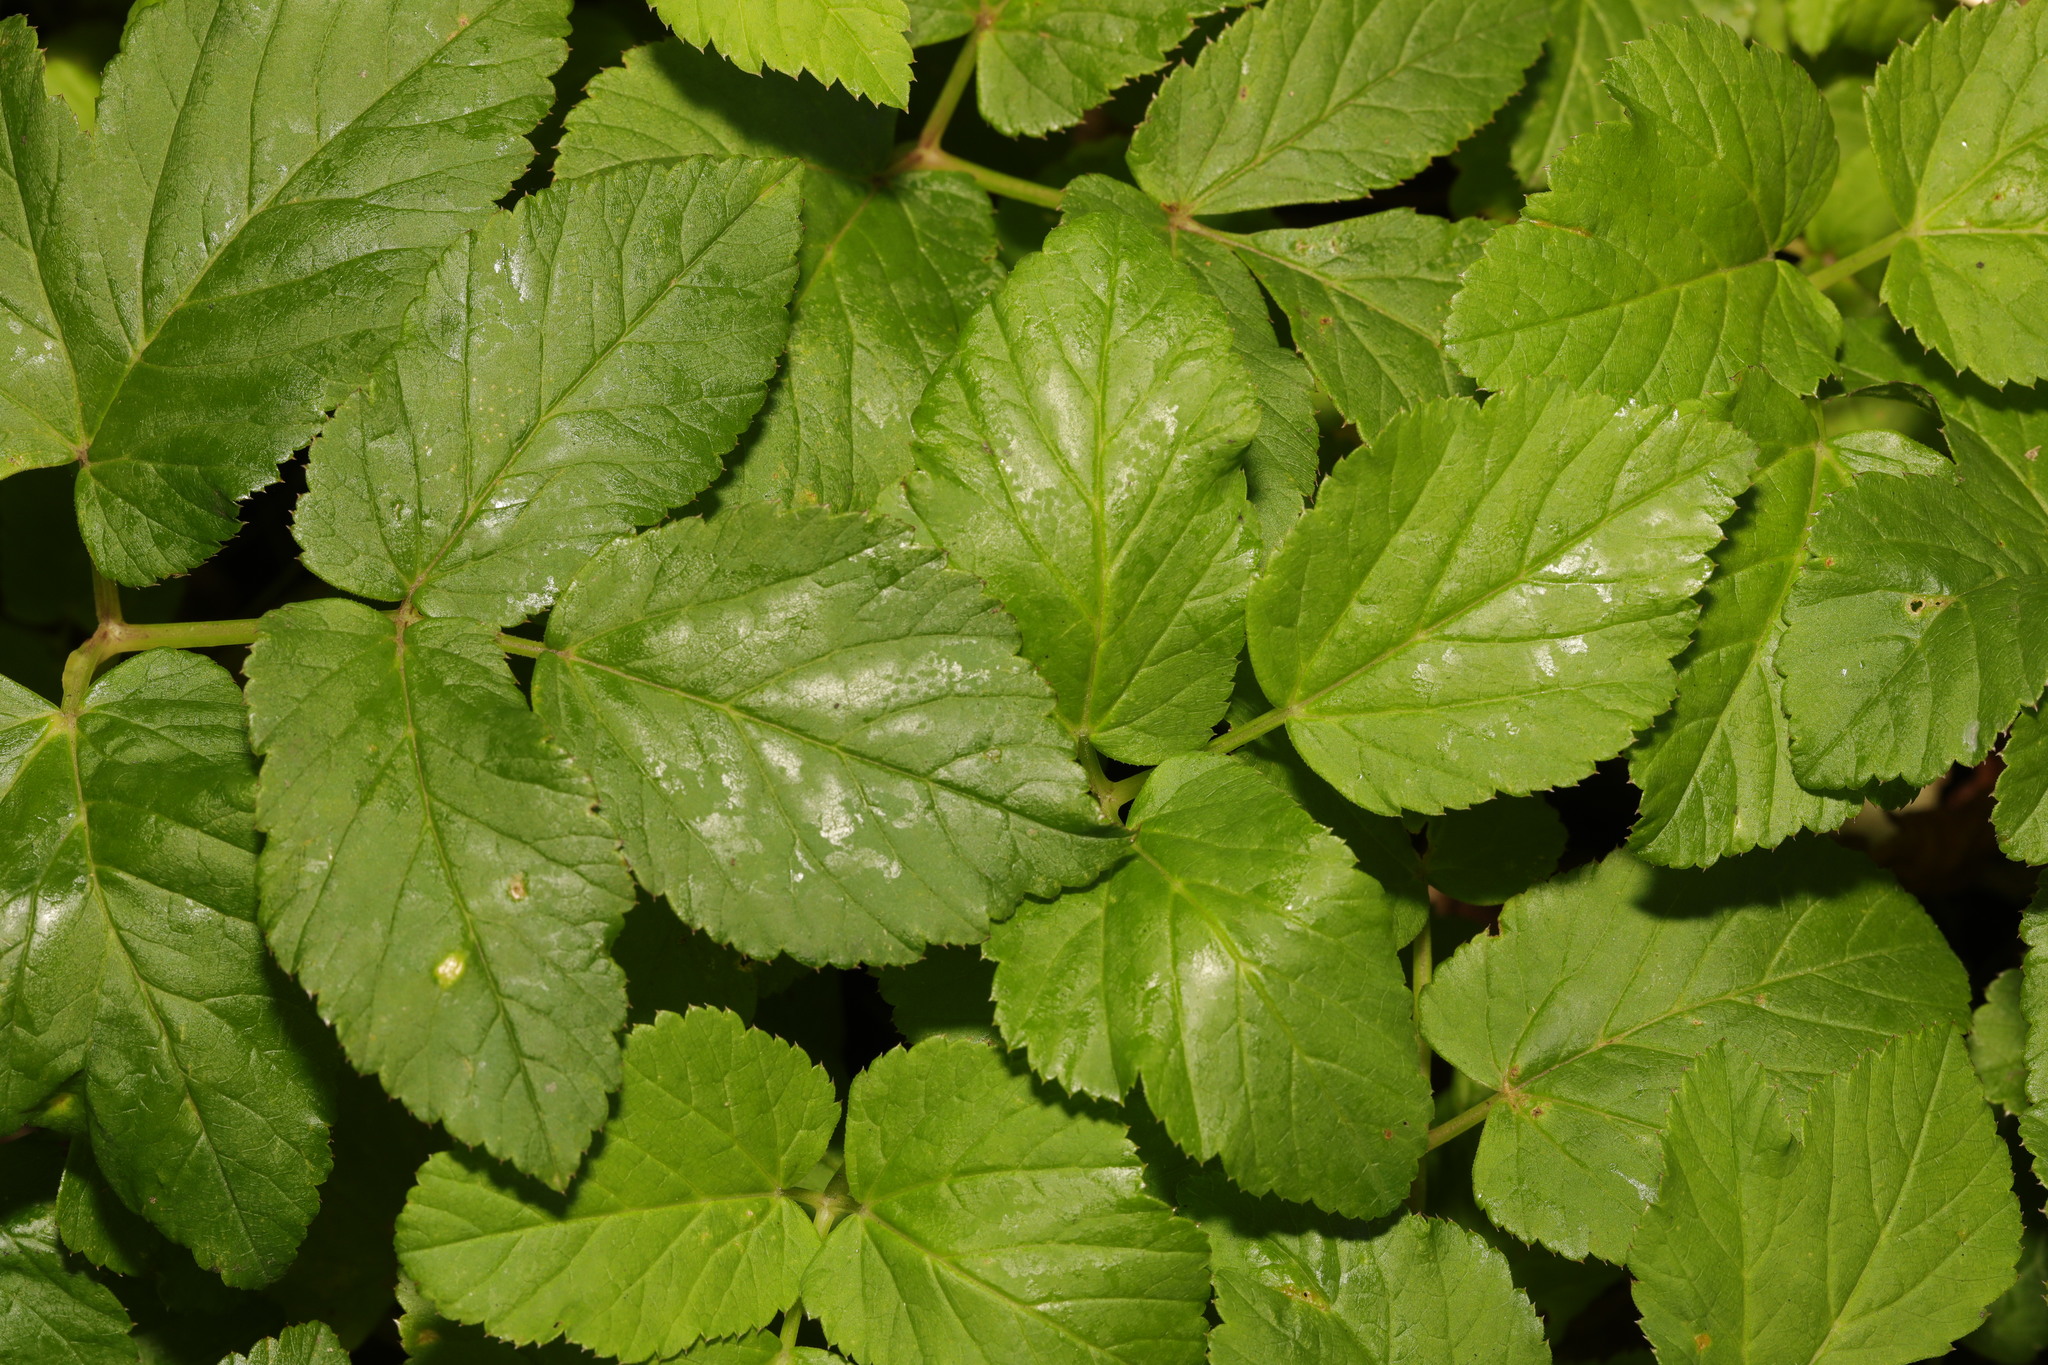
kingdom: Plantae
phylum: Tracheophyta
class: Magnoliopsida
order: Apiales
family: Apiaceae
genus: Aegopodium
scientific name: Aegopodium podagraria
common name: Ground-elder
